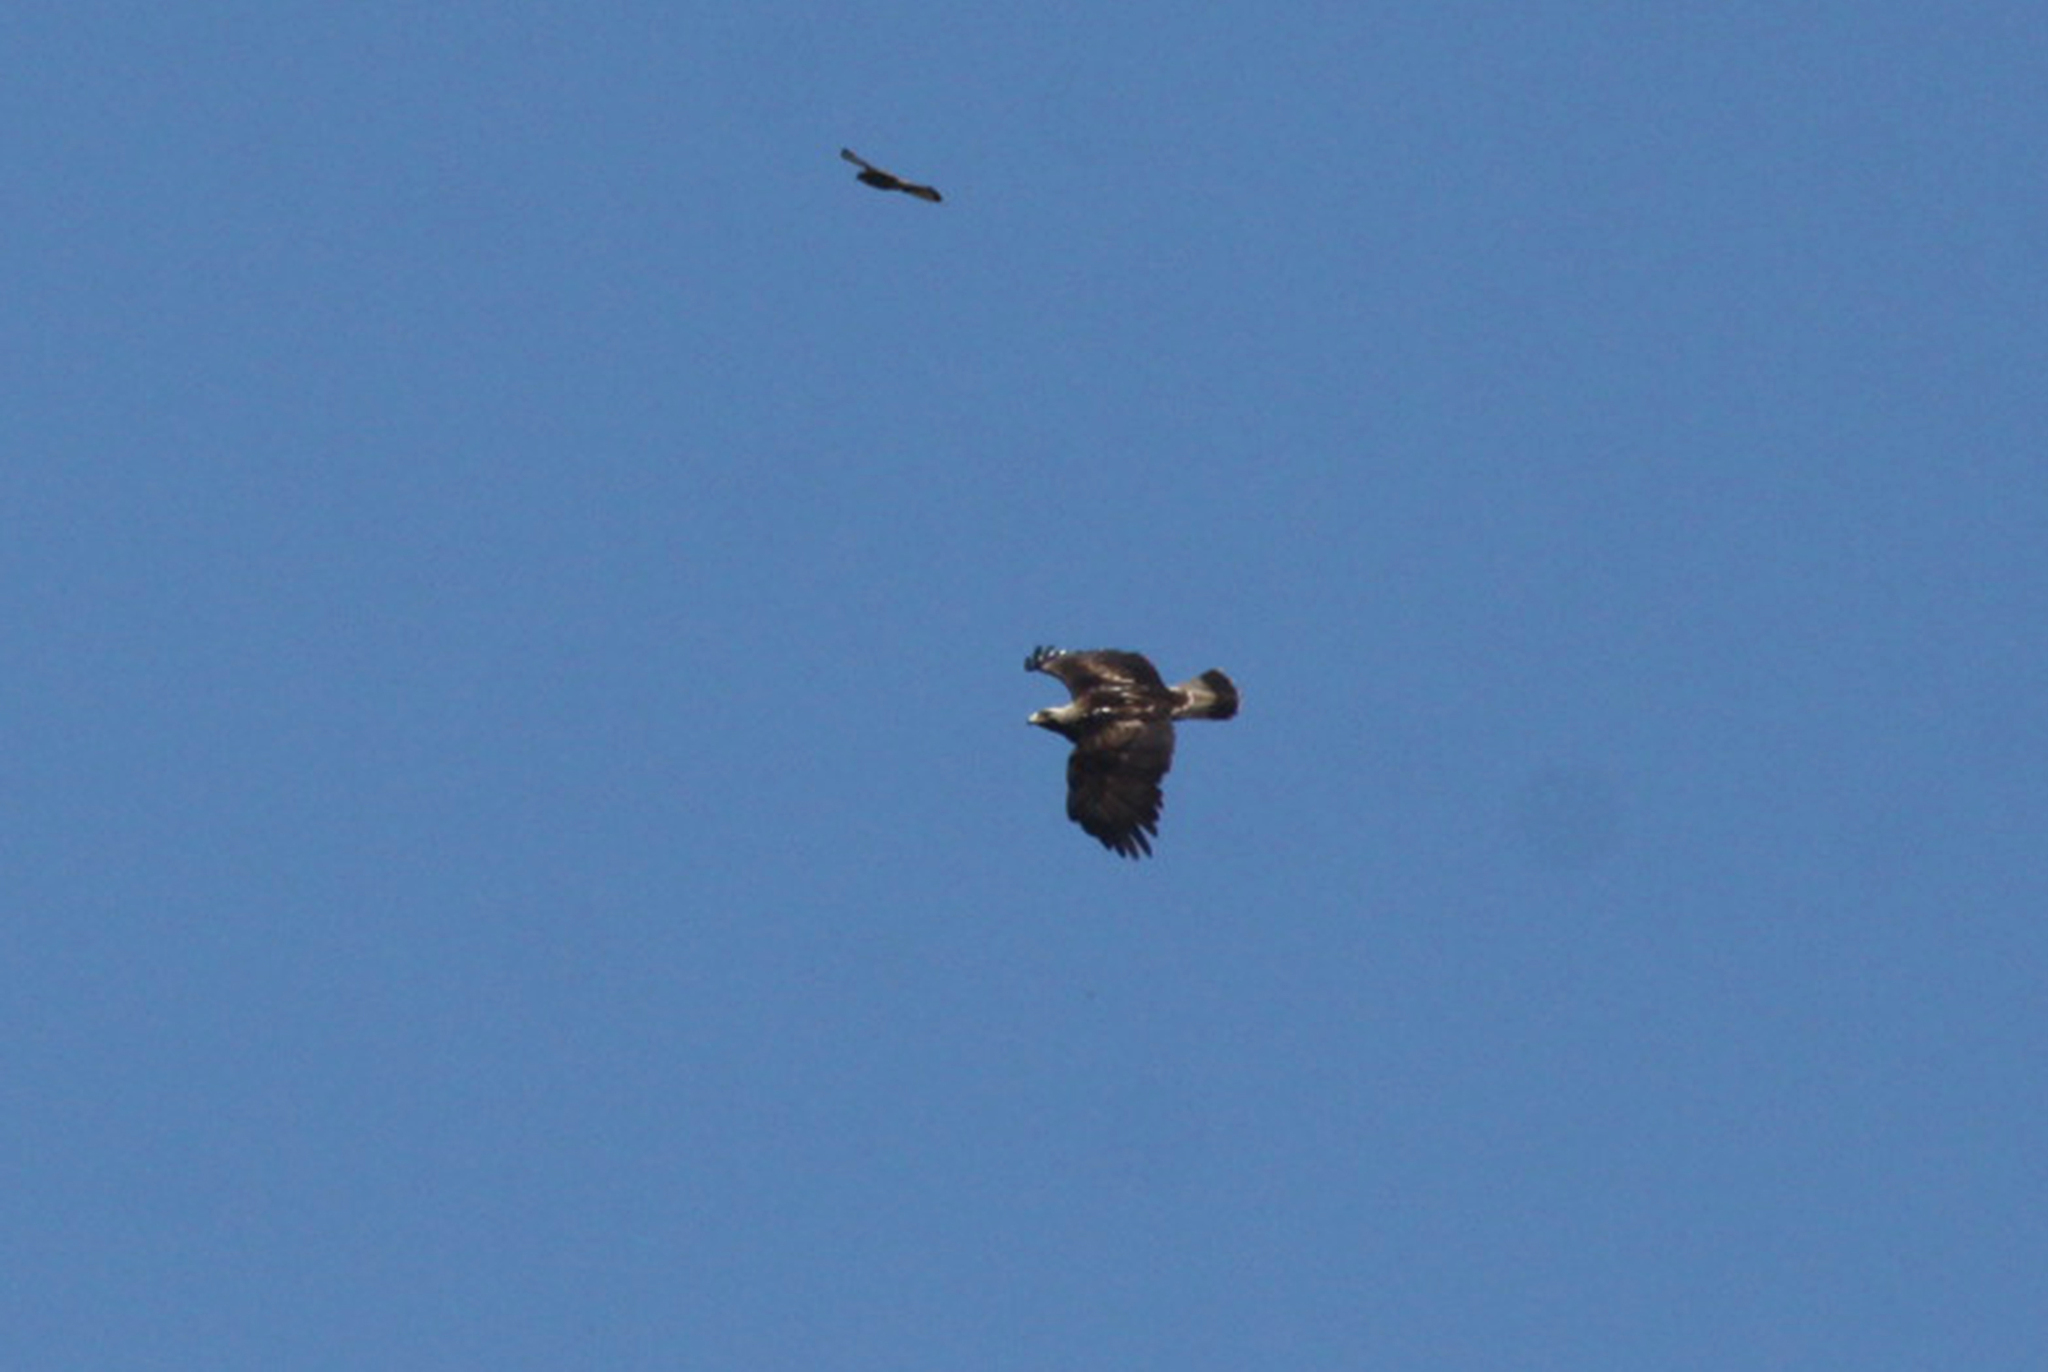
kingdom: Animalia
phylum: Chordata
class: Aves
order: Accipitriformes
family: Accipitridae
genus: Aquila
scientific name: Aquila heliaca
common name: Eastern imperial eagle
